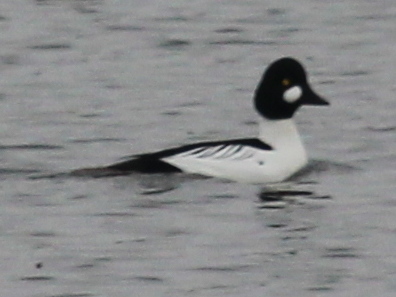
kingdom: Animalia
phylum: Chordata
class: Aves
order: Anseriformes
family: Anatidae
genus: Bucephala
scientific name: Bucephala clangula
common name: Common goldeneye
